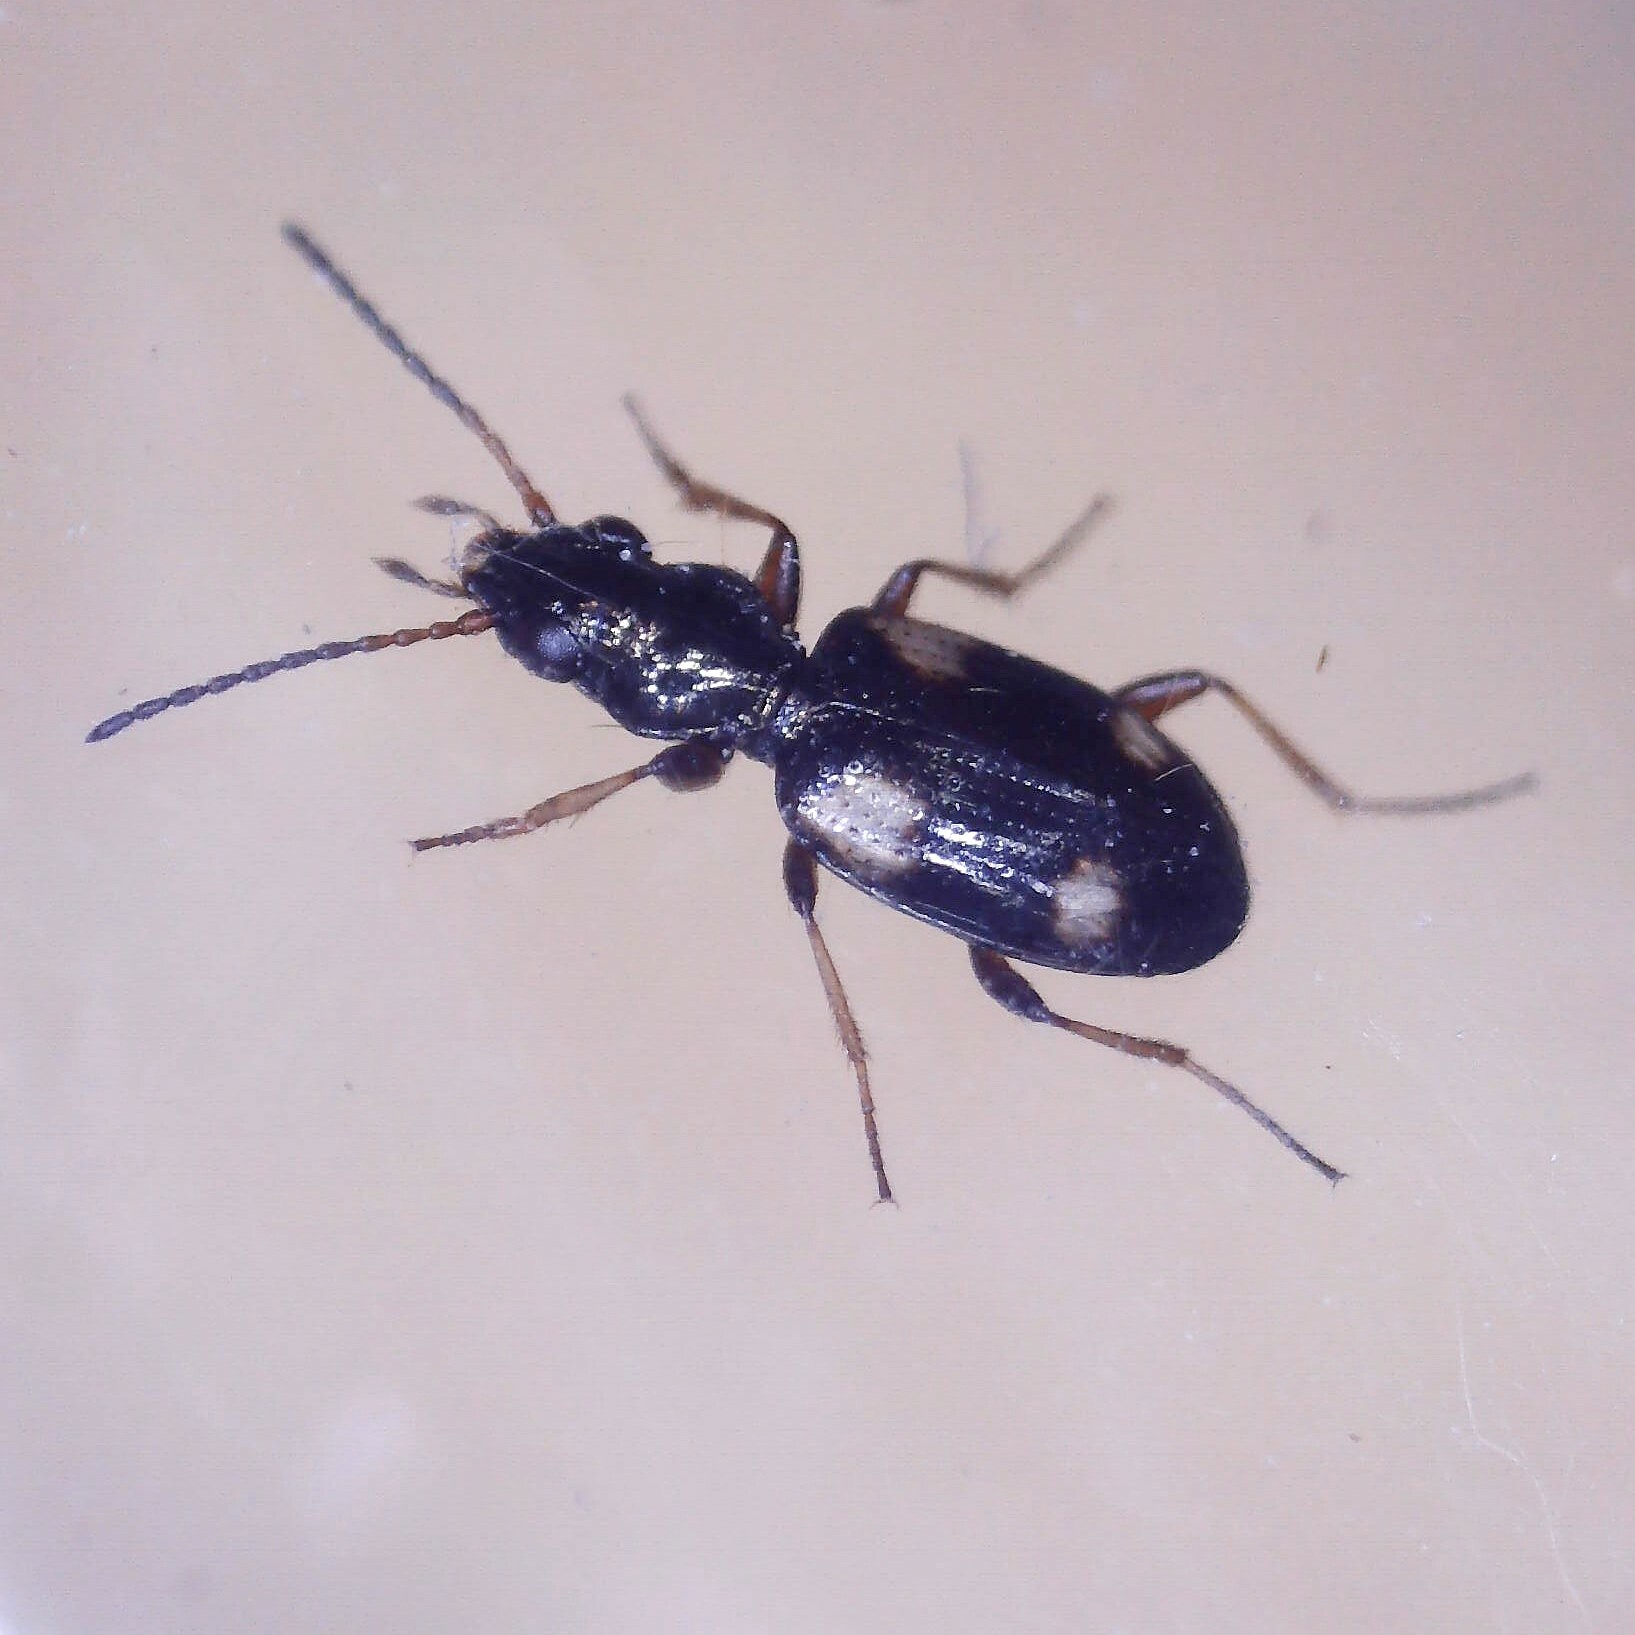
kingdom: Animalia
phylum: Arthropoda
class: Insecta
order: Coleoptera
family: Carabidae
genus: Bembidion
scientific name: Bembidion quadrimaculatum
